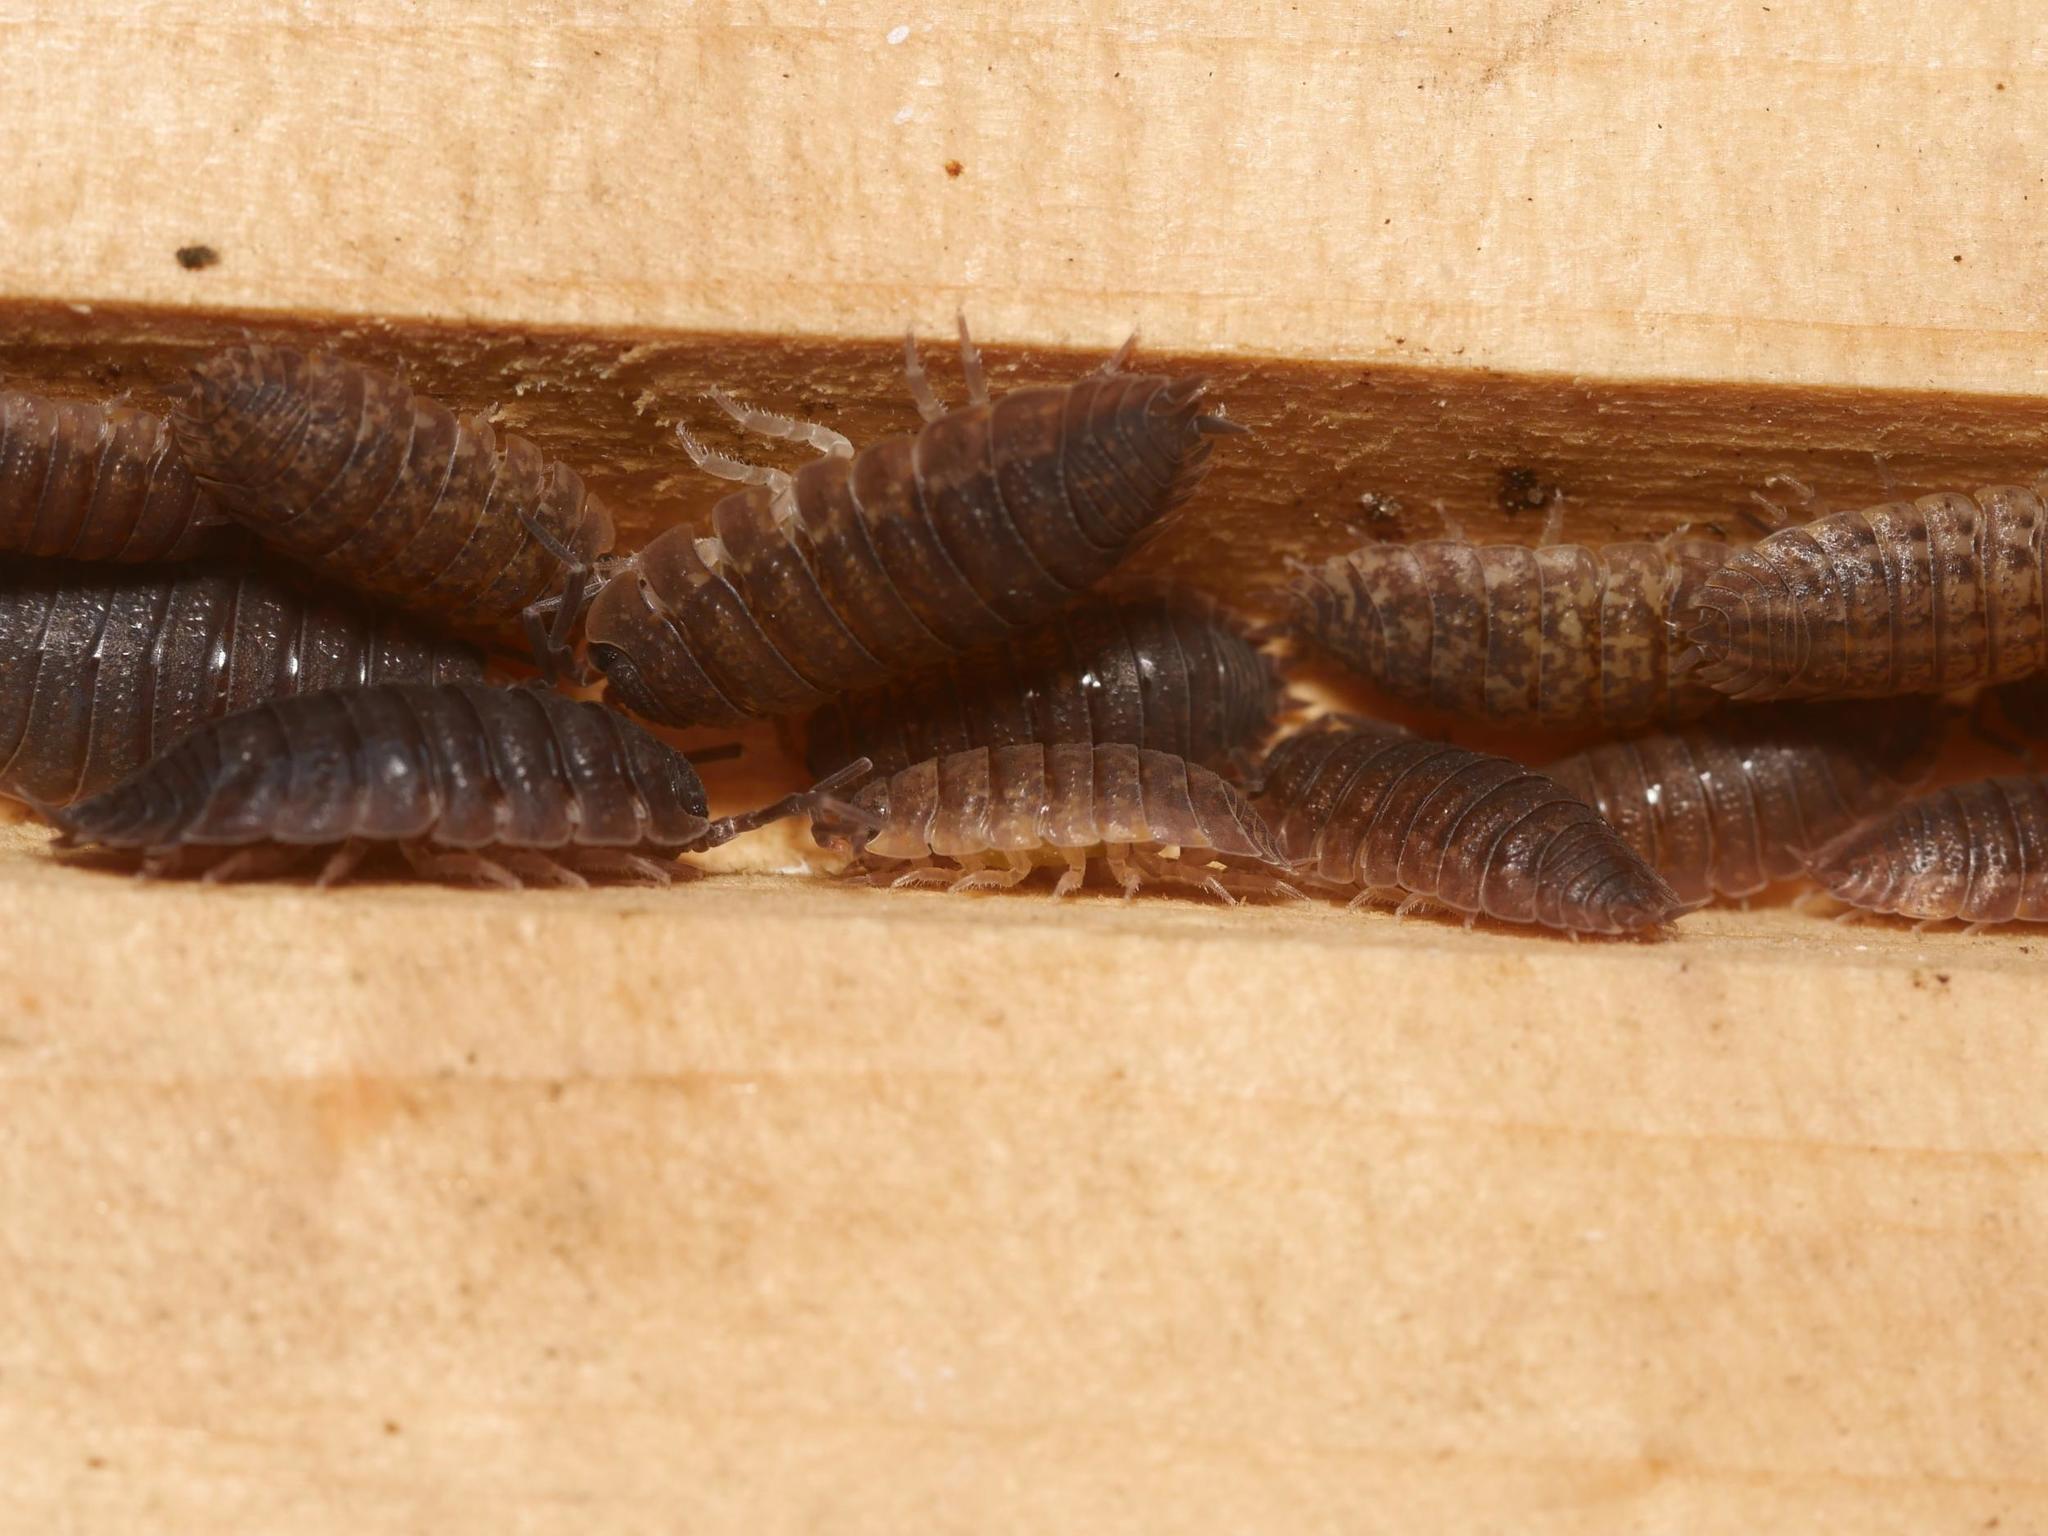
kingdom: Animalia
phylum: Arthropoda
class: Malacostraca
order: Isopoda
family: Porcellionidae
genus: Porcellio
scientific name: Porcellio scaber
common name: Common rough woodlouse
